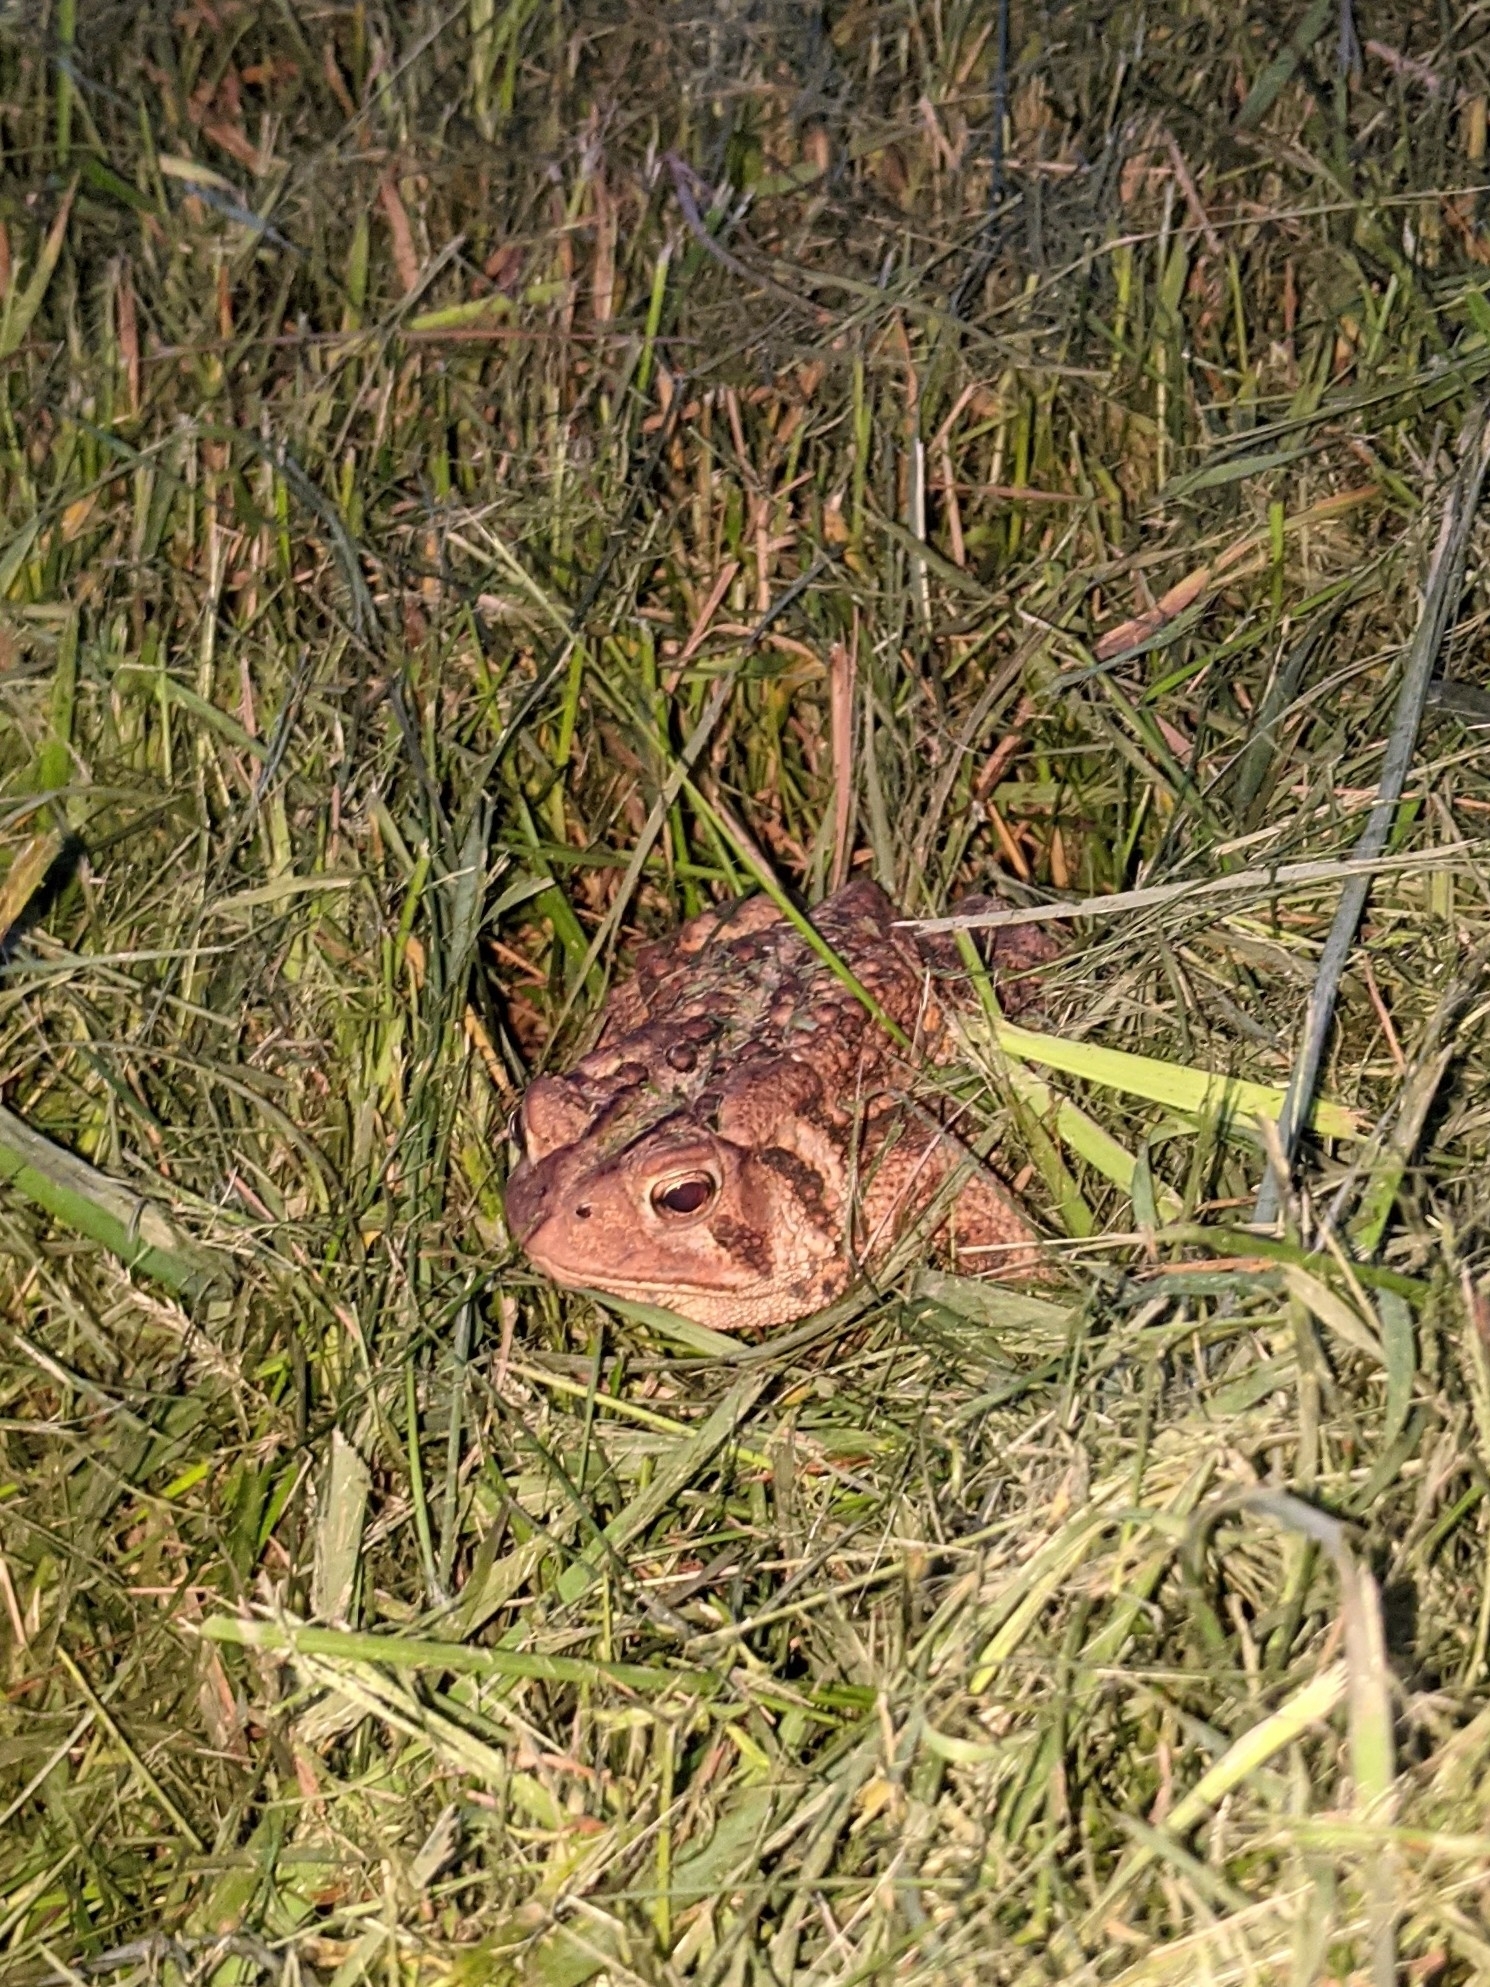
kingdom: Animalia
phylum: Chordata
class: Amphibia
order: Anura
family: Bufonidae
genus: Anaxyrus
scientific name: Anaxyrus americanus
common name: American toad
